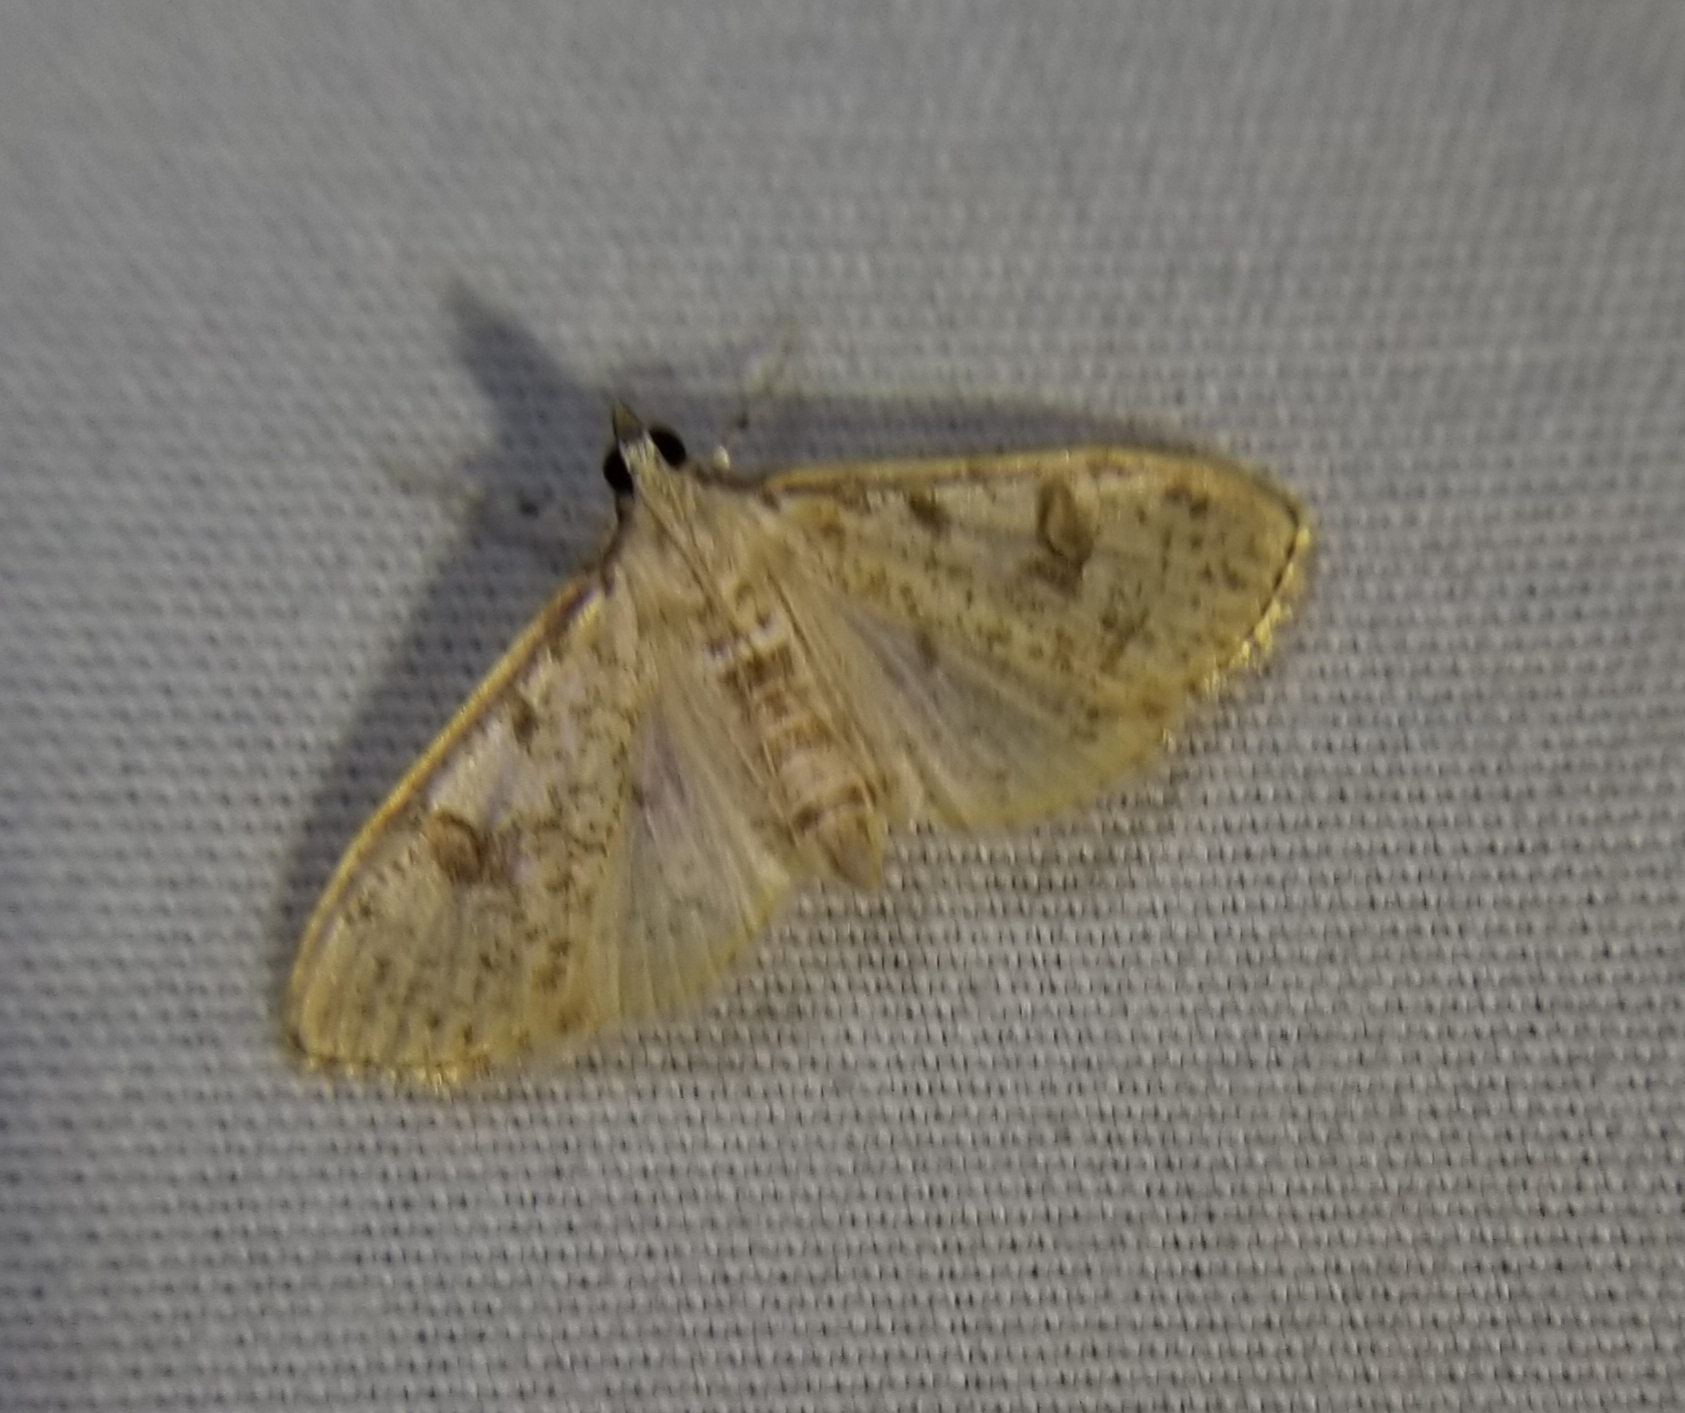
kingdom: Animalia
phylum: Arthropoda
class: Insecta
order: Lepidoptera
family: Crambidae
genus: Palpita
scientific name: Palpita freemanalis
